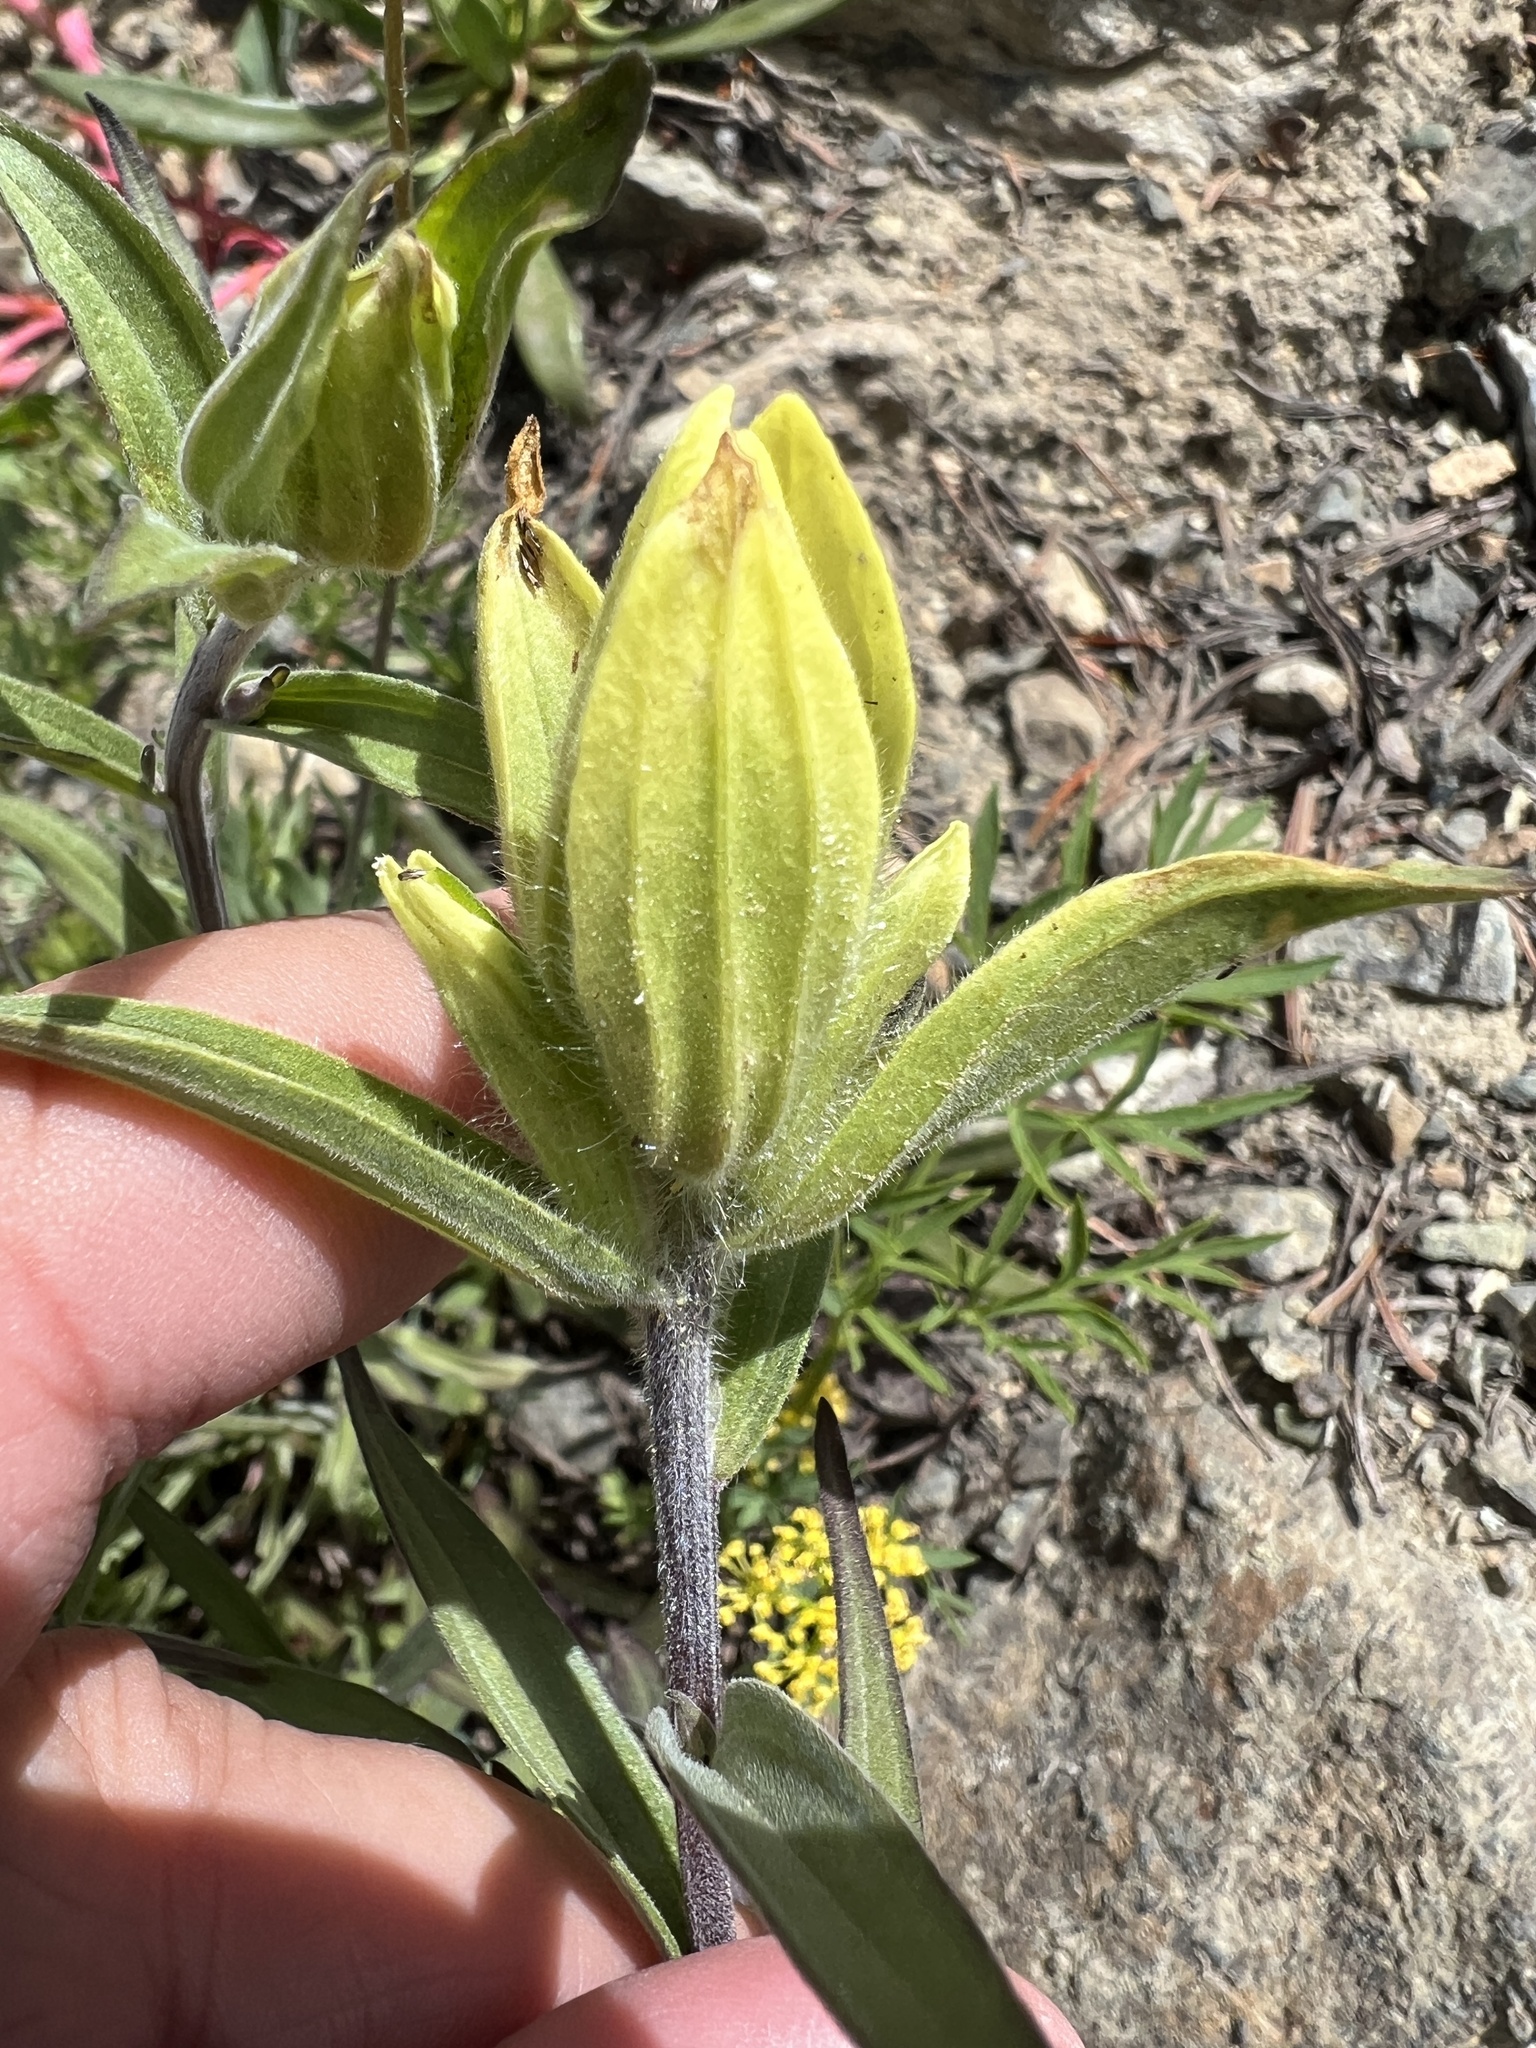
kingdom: Plantae
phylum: Tracheophyta
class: Magnoliopsida
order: Lamiales
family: Orobanchaceae
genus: Castilleja
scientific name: Castilleja elmeri
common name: Elmer's paintbrush
